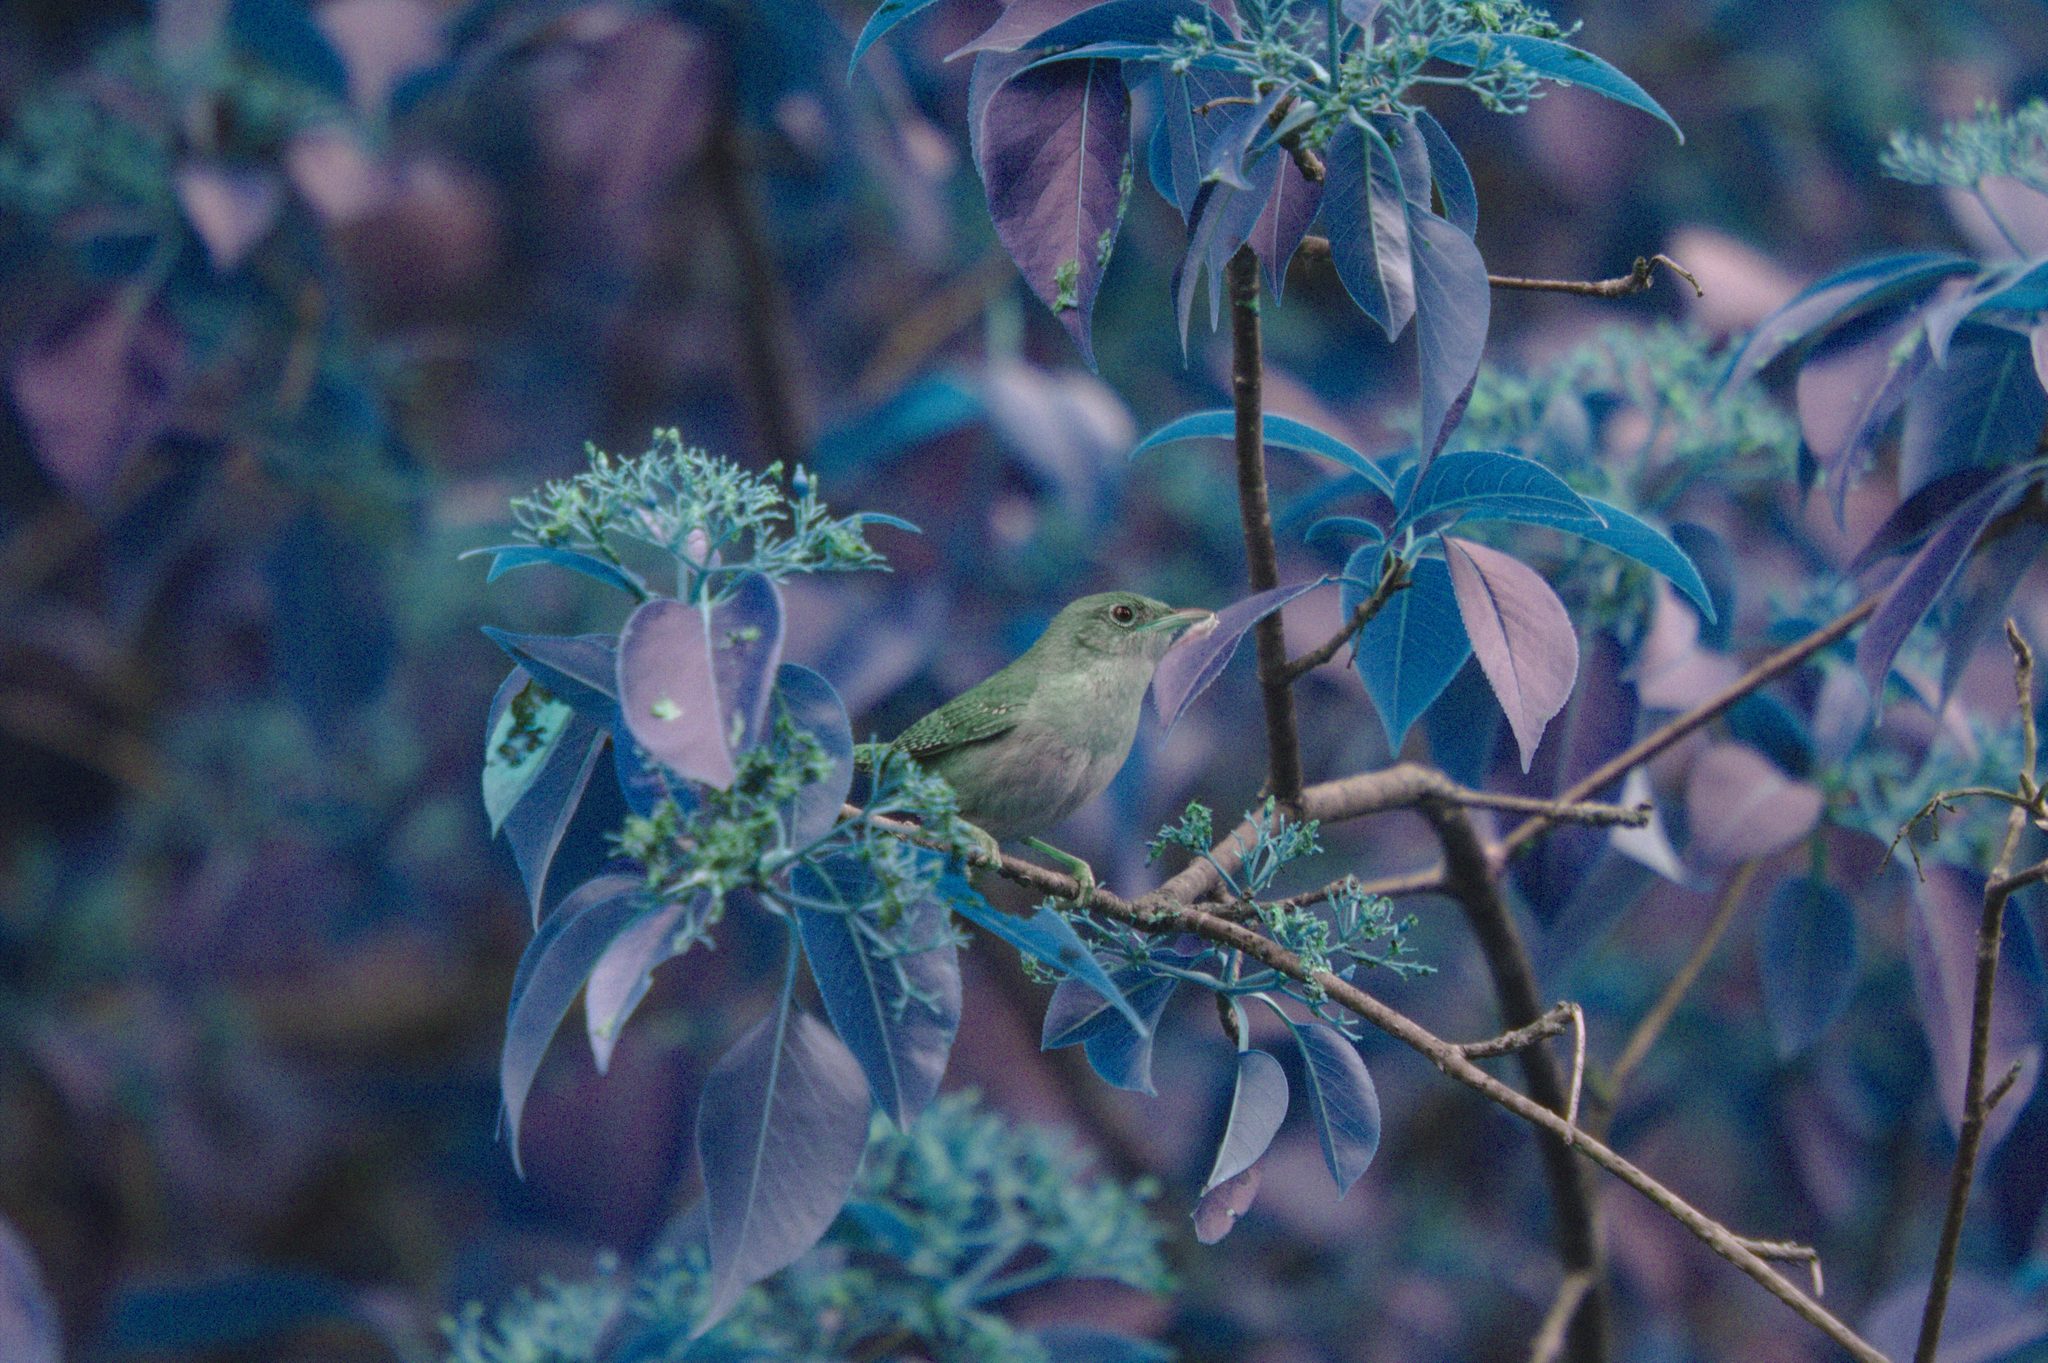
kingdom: Animalia
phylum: Chordata
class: Aves
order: Passeriformes
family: Troglodytidae
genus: Troglodytes
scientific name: Troglodytes aedon
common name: House wren
